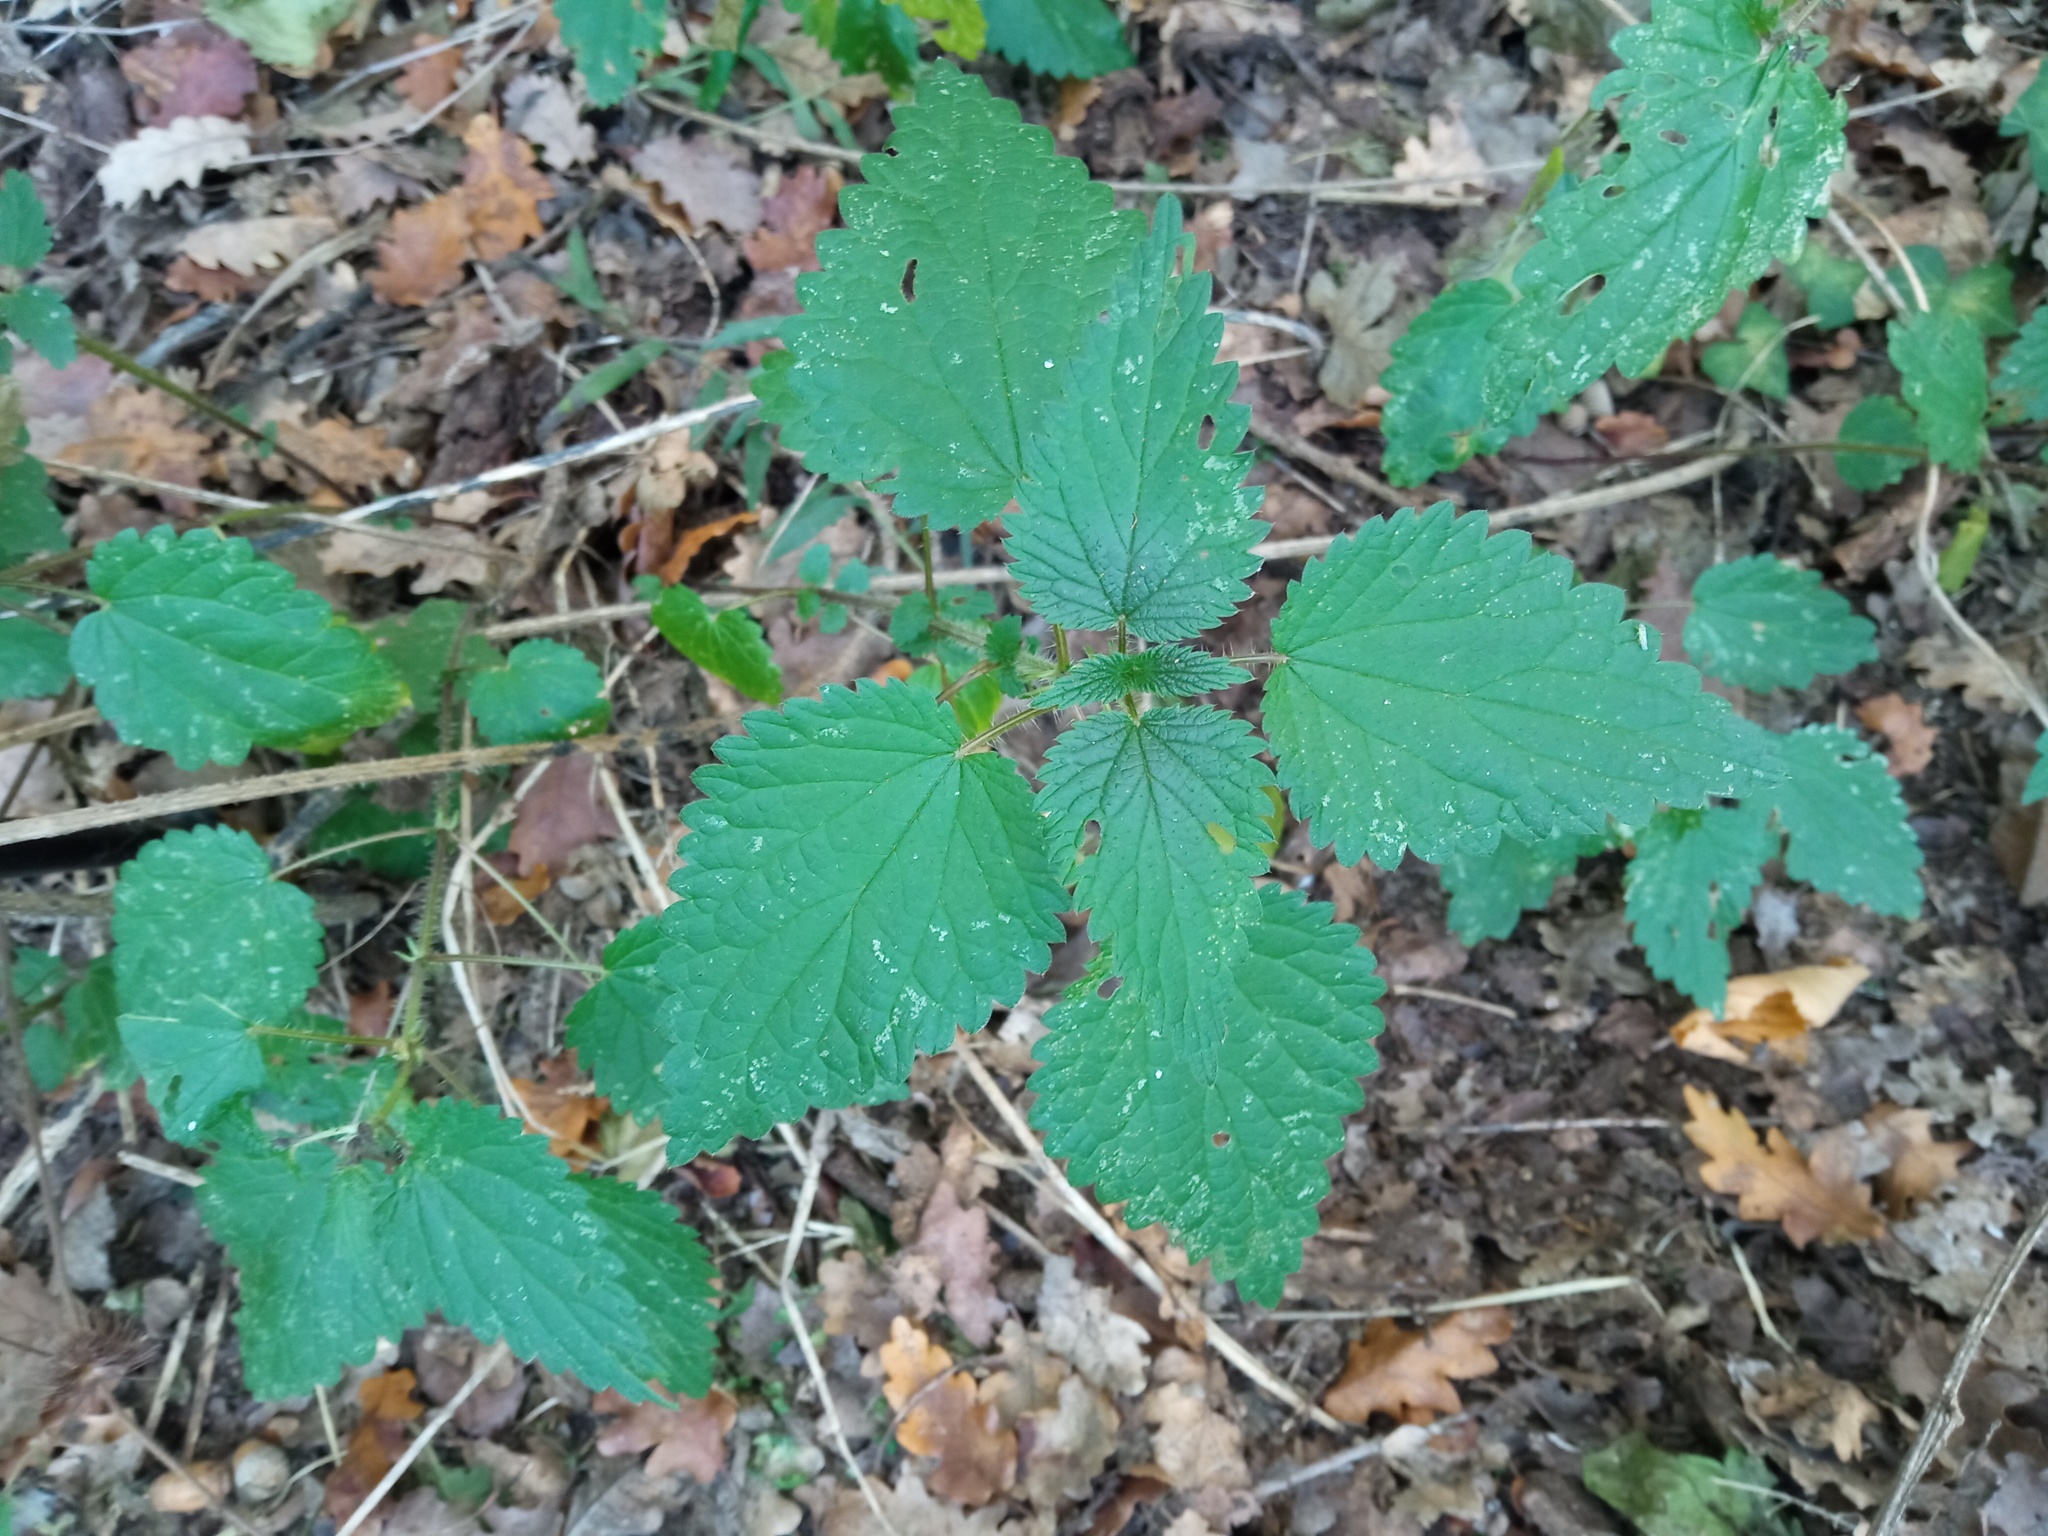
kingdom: Plantae
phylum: Tracheophyta
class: Magnoliopsida
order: Rosales
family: Urticaceae
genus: Urtica
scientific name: Urtica dioica
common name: Common nettle
